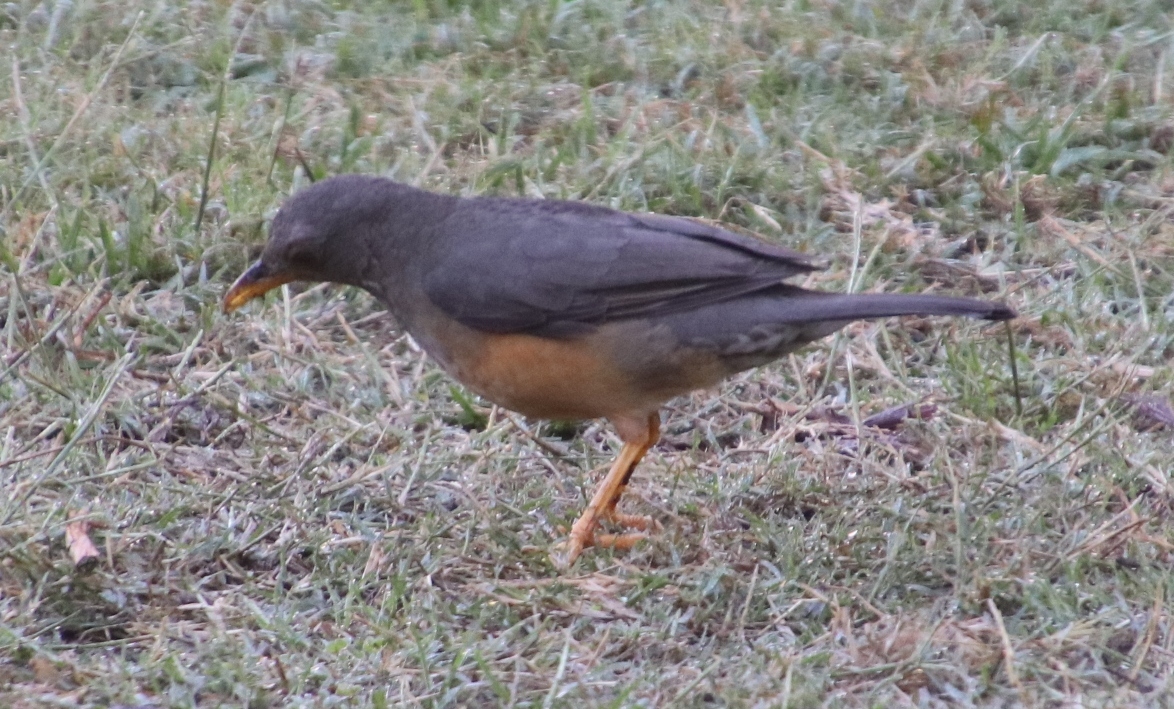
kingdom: Animalia
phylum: Chordata
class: Aves
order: Passeriformes
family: Turdidae
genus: Turdus
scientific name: Turdus olivaceus
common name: Olive thrush
